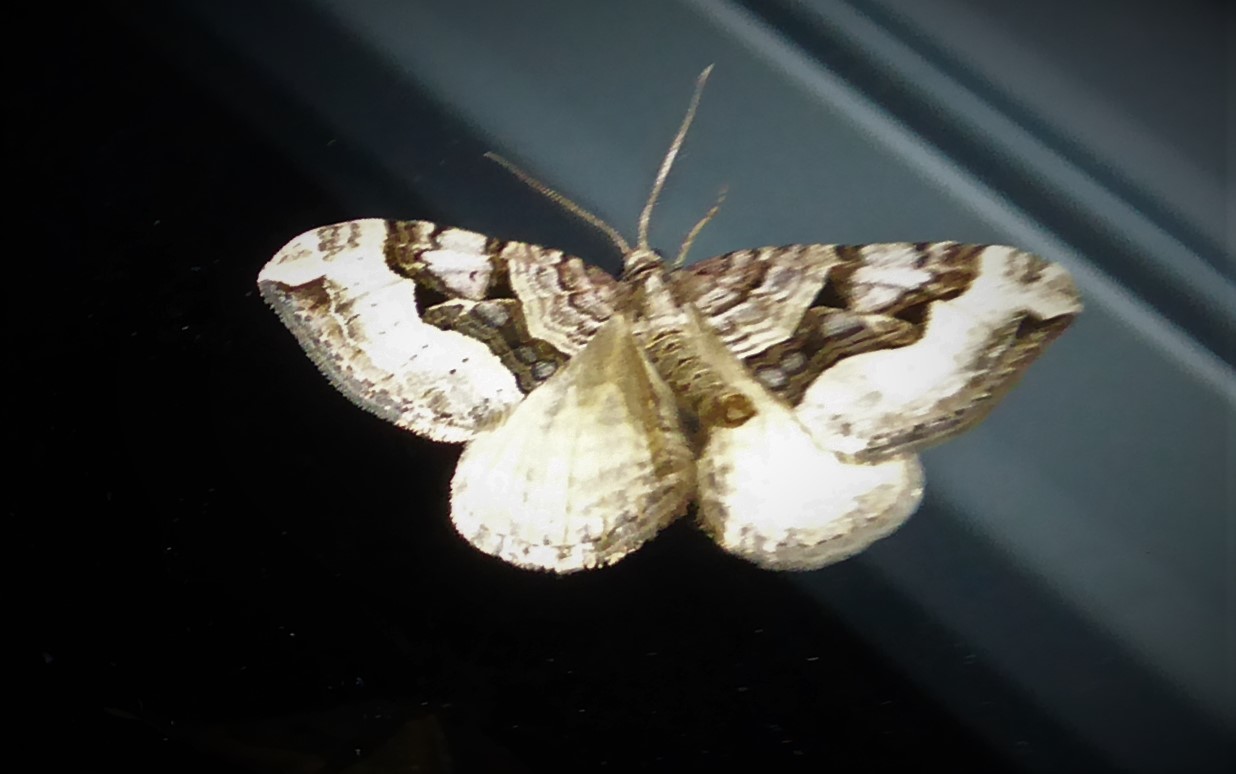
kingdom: Animalia
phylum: Arthropoda
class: Insecta
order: Lepidoptera
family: Geometridae
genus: Xanthorhoe
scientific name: Xanthorhoe semifissata
